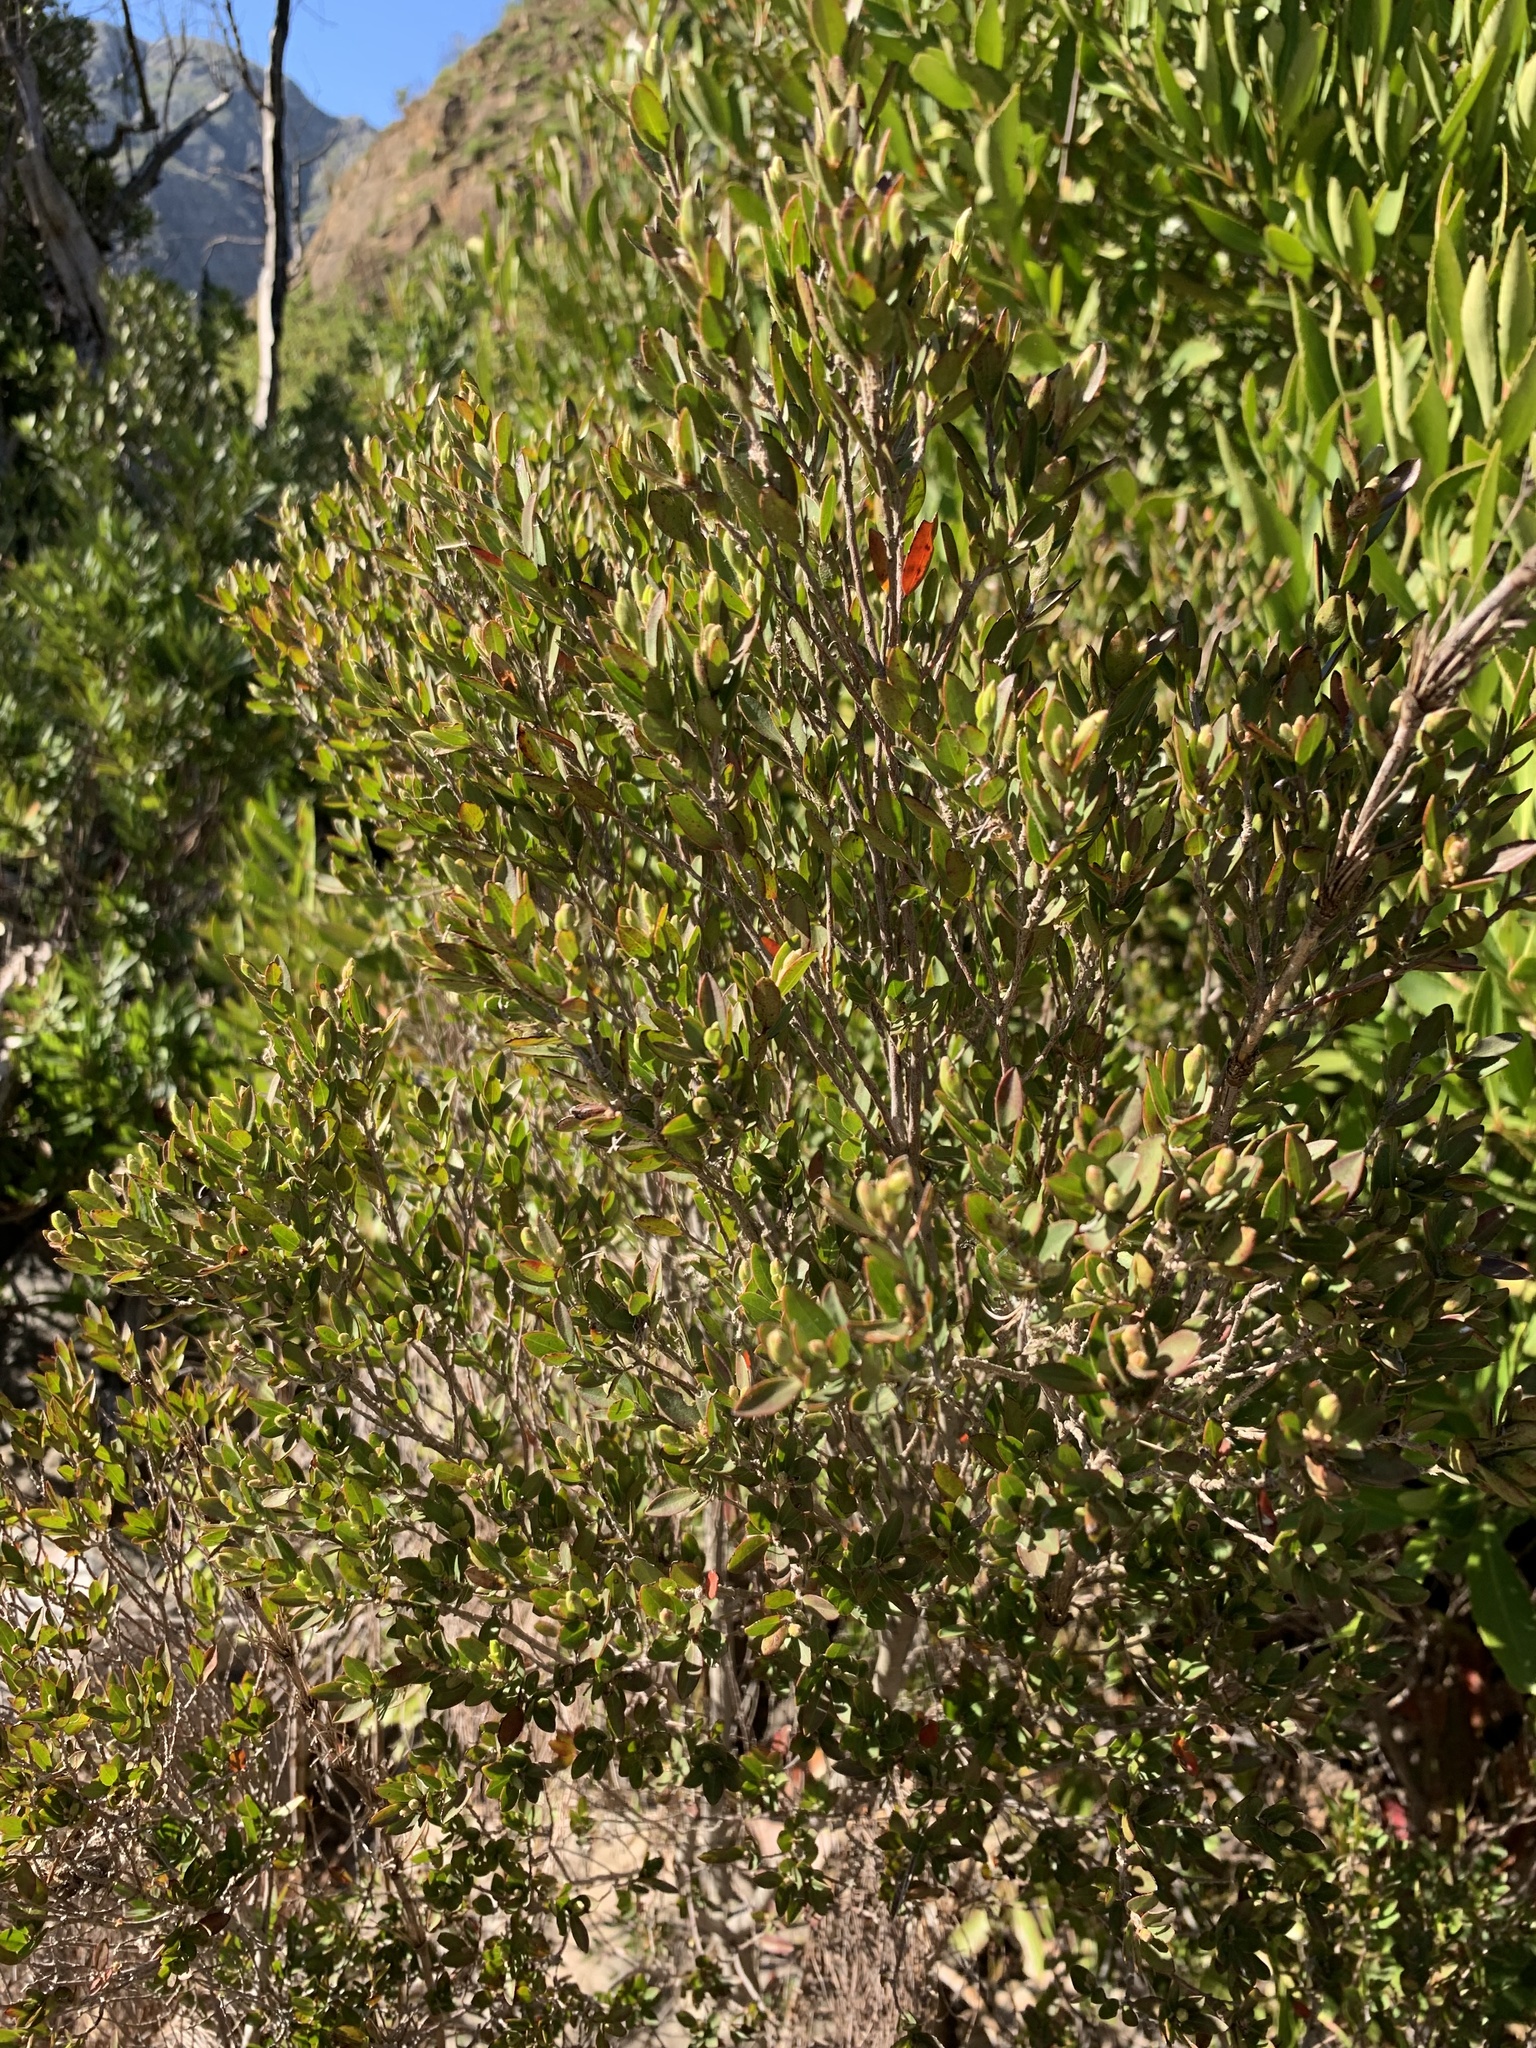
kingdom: Plantae
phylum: Tracheophyta
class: Magnoliopsida
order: Ericales
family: Ebenaceae
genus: Diospyros
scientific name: Diospyros glabra
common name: Fynbos star apple
